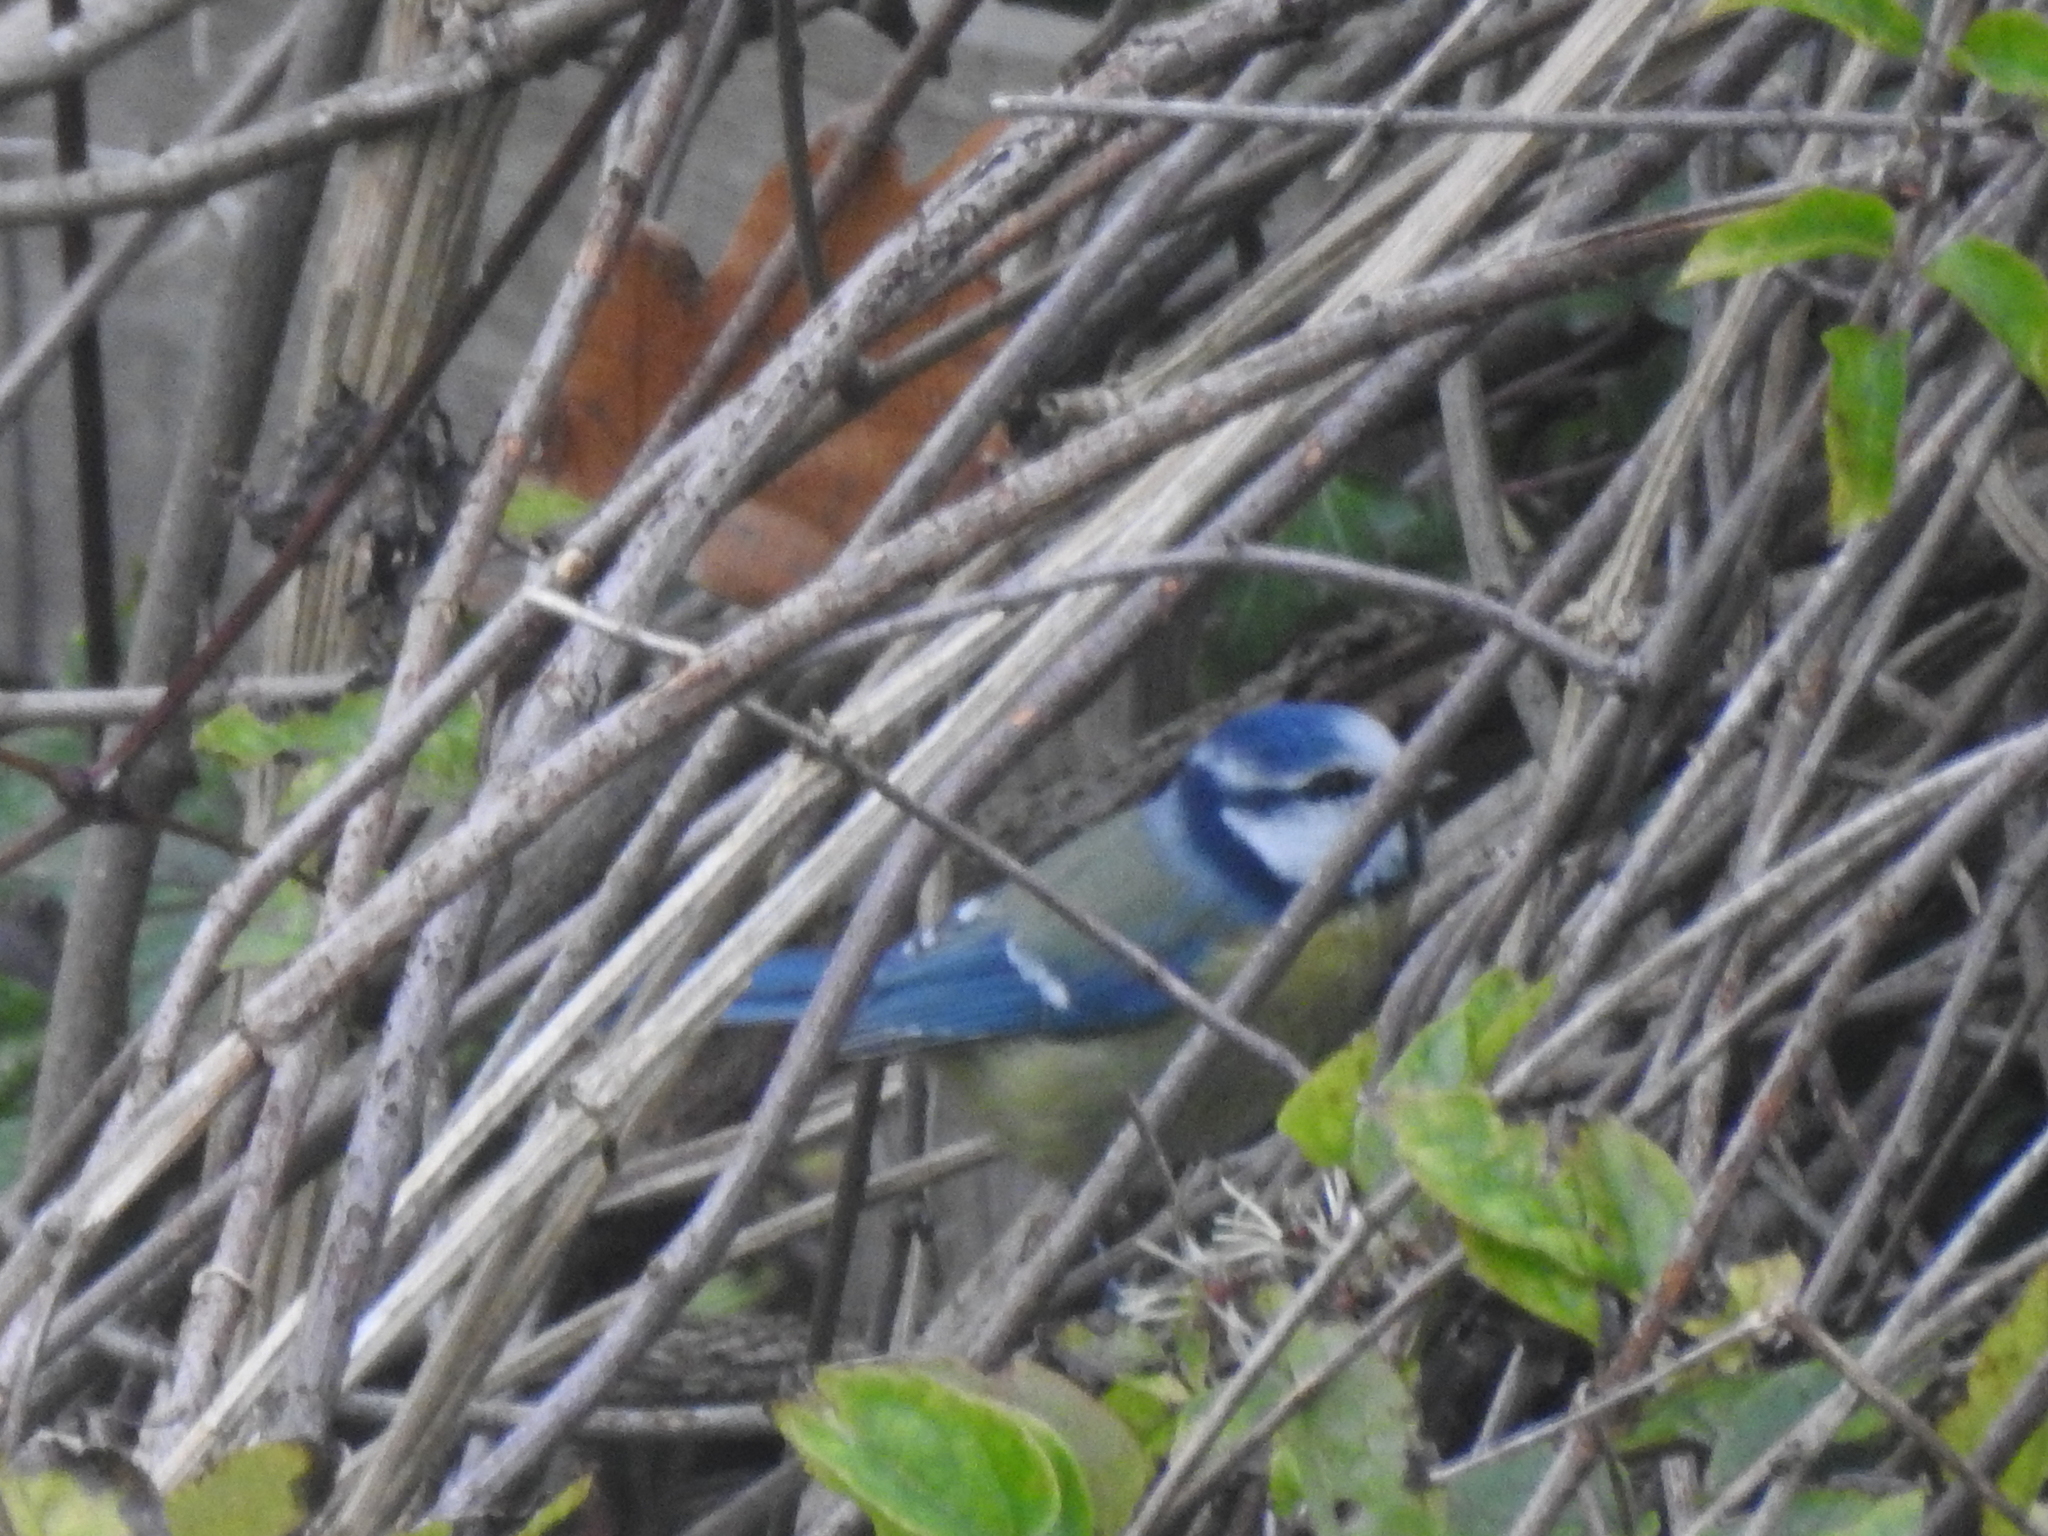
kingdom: Animalia
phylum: Chordata
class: Aves
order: Passeriformes
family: Paridae
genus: Cyanistes
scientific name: Cyanistes caeruleus
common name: Eurasian blue tit
